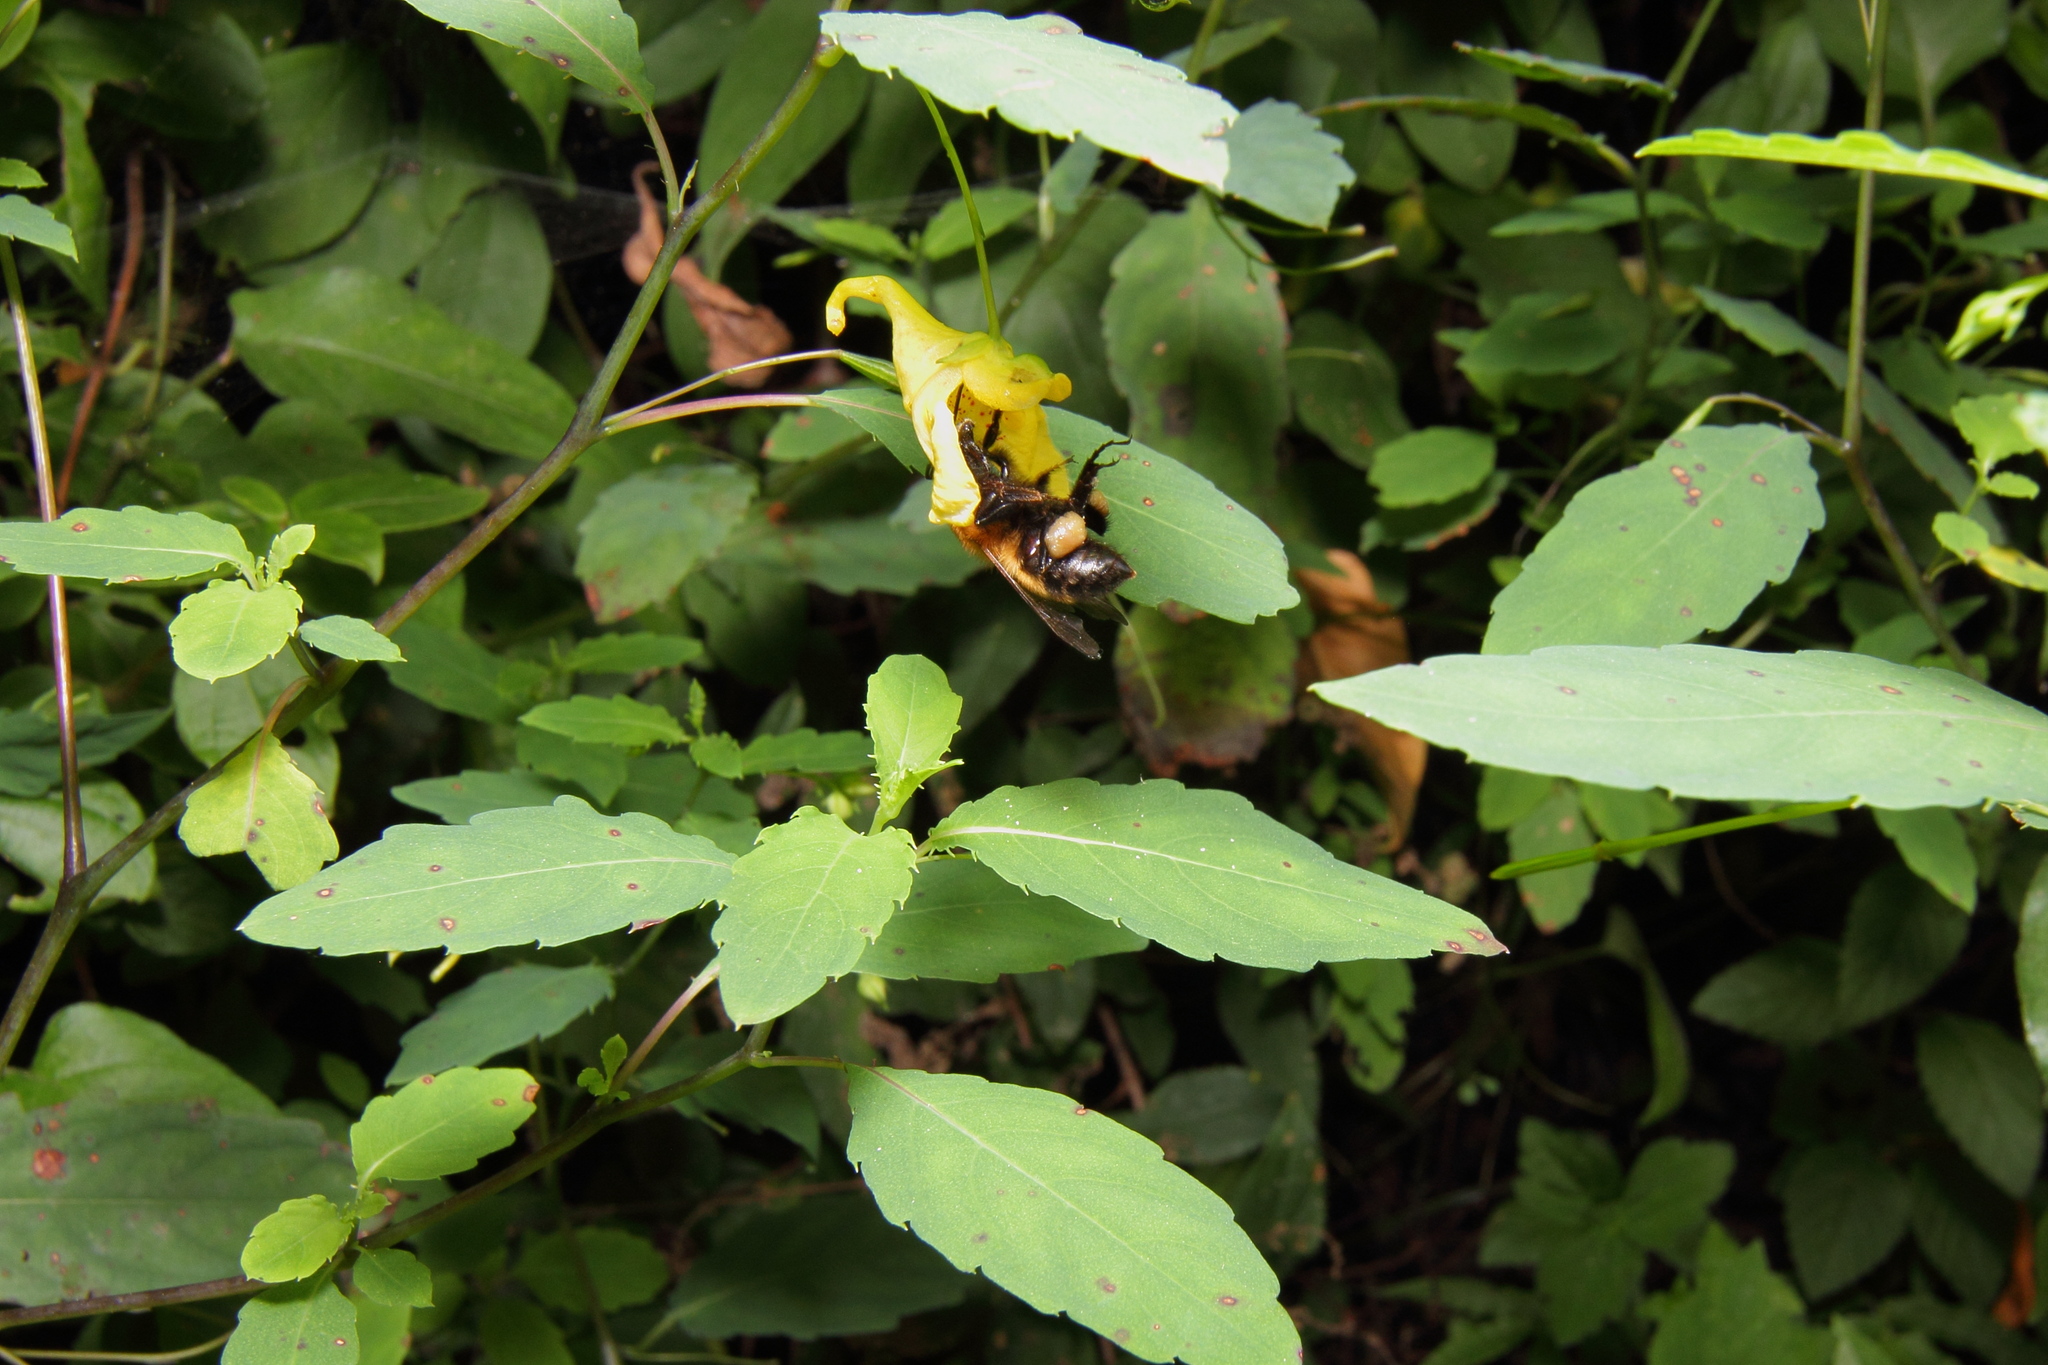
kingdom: Plantae
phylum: Tracheophyta
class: Magnoliopsida
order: Ericales
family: Balsaminaceae
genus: Impatiens
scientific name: Impatiens noli-tangere
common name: Touch-me-not balsam
